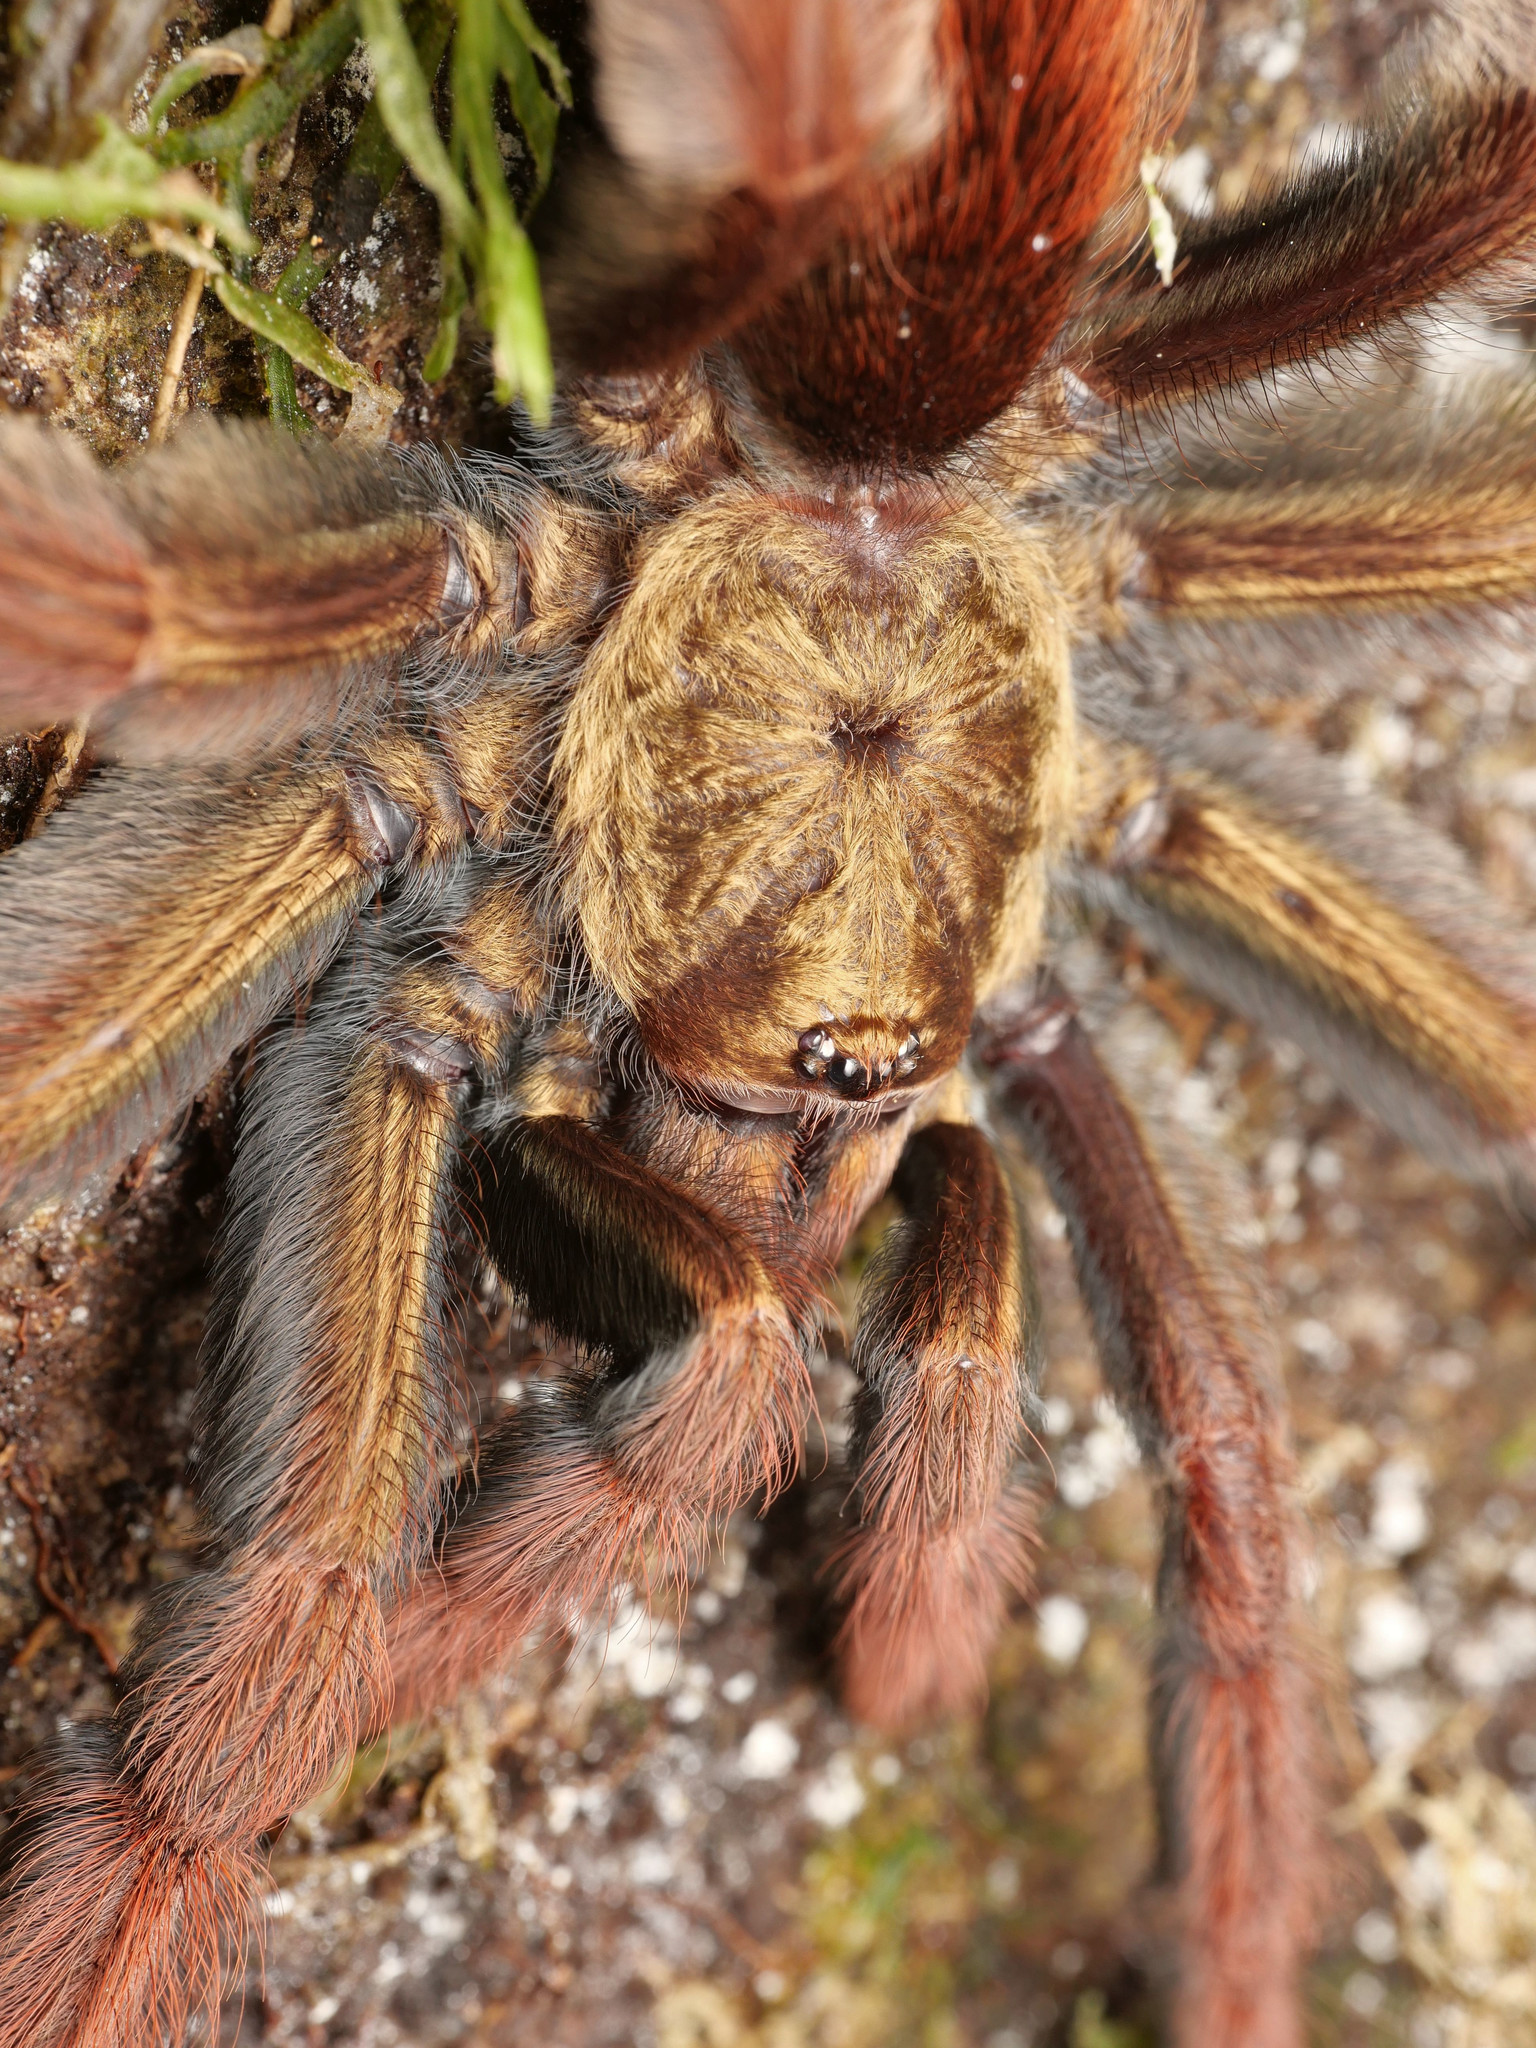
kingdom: Animalia
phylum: Arthropoda
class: Arachnida
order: Araneae
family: Theraphosidae
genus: Psalmopoeus
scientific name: Psalmopoeus ecclesiasticus
